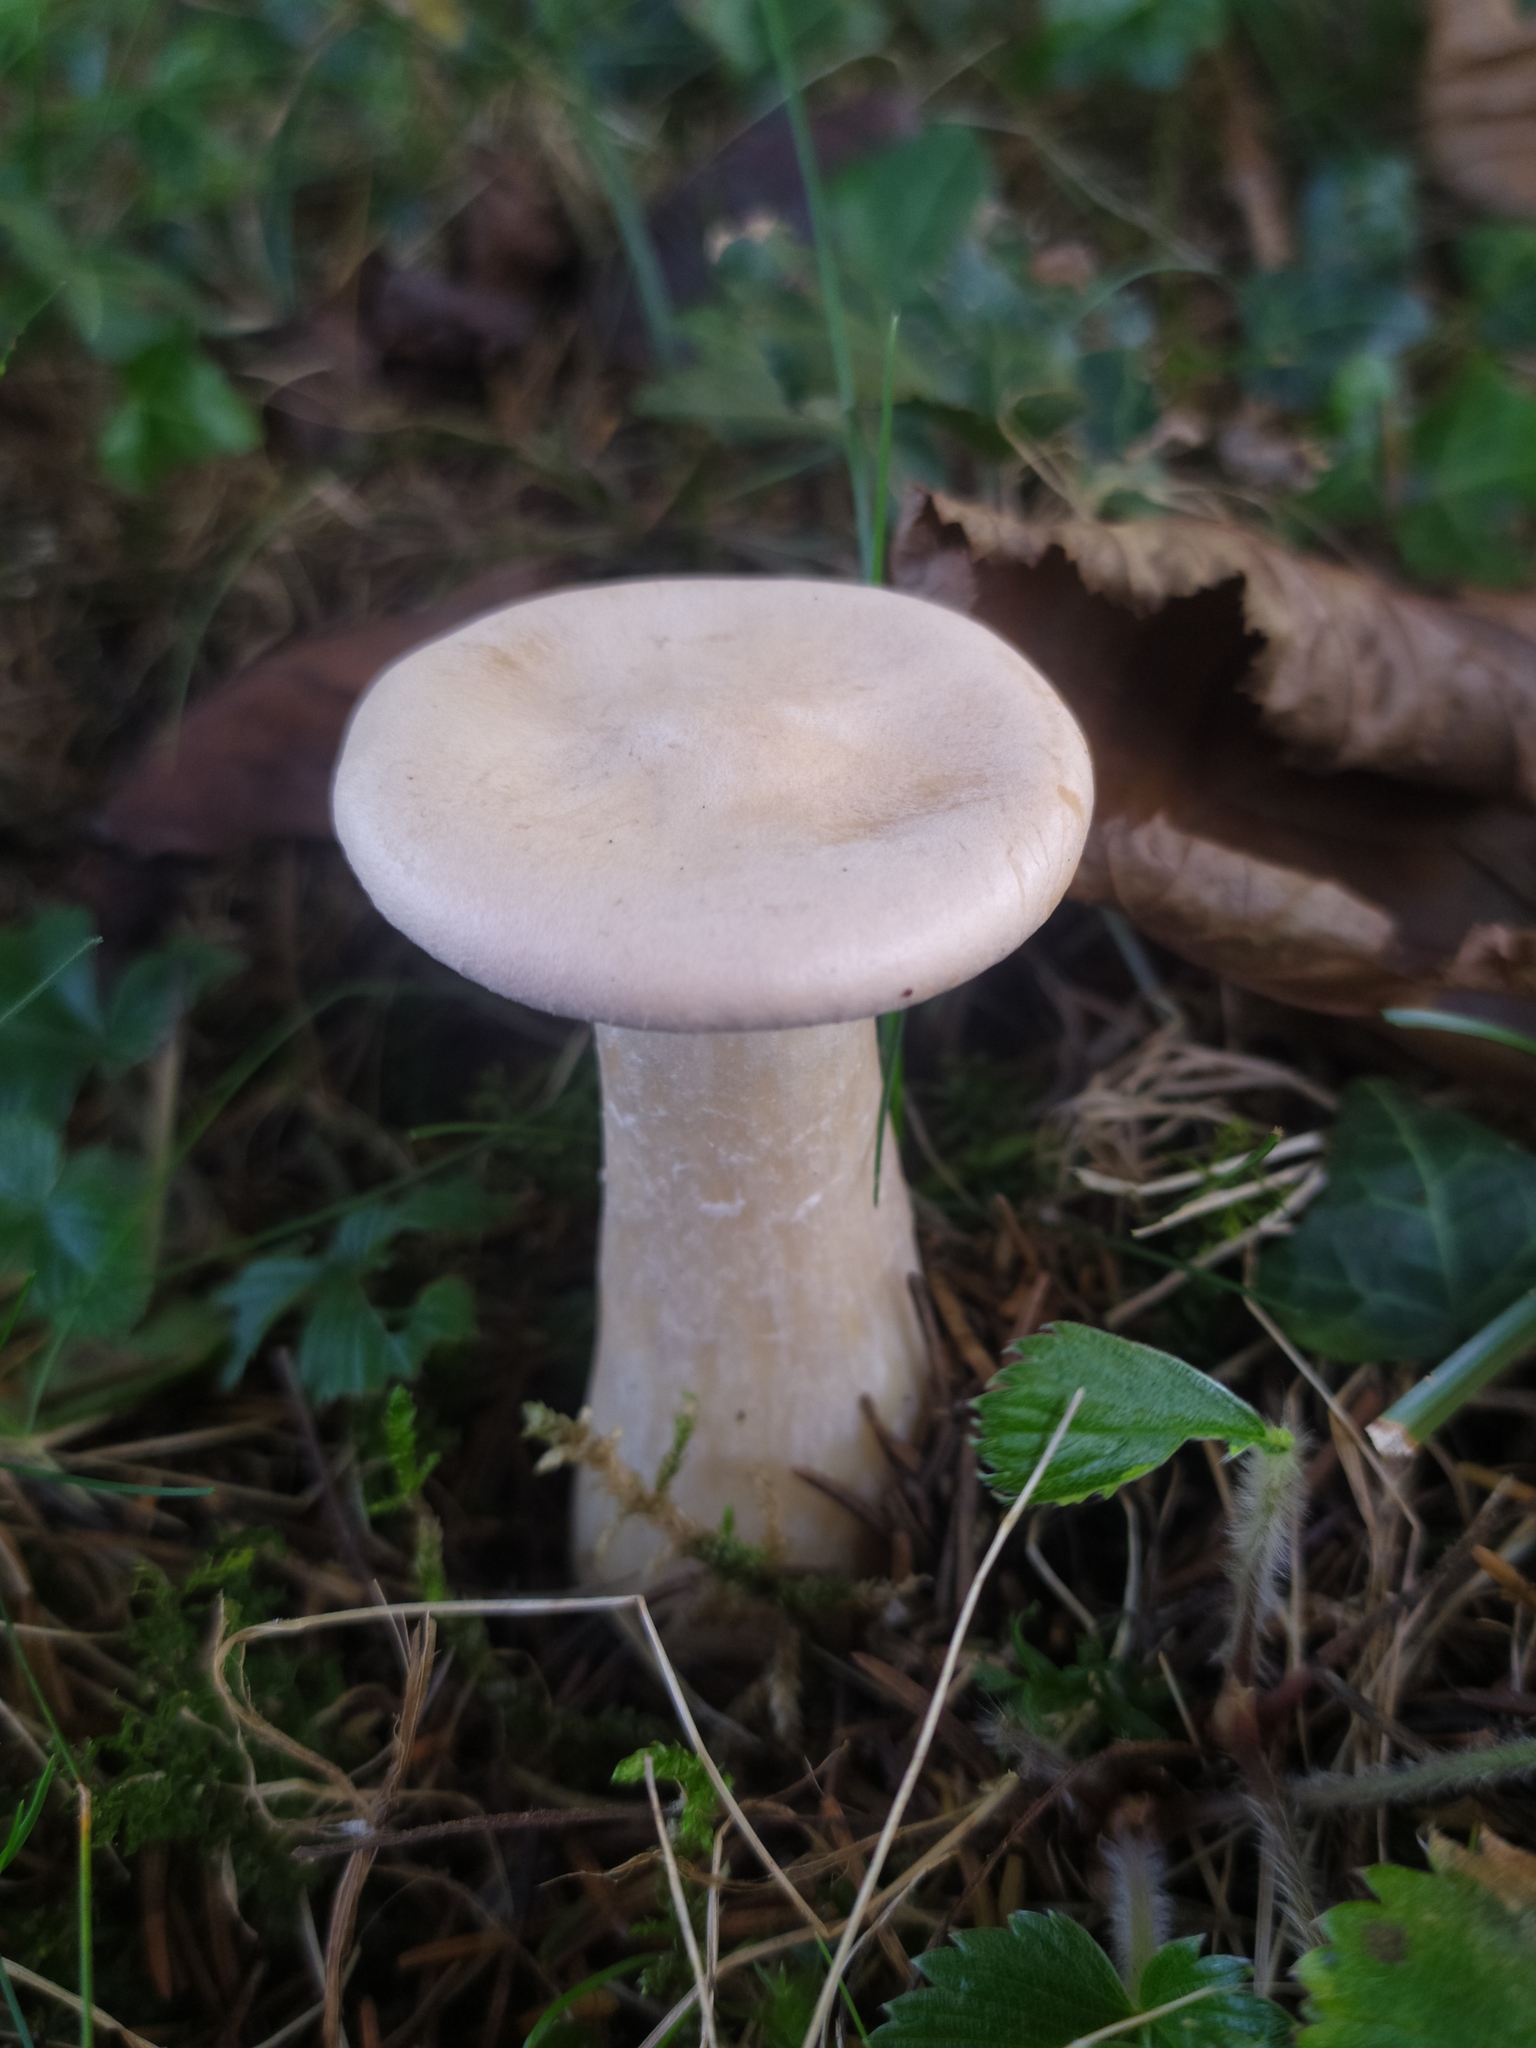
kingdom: Fungi
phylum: Basidiomycota
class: Agaricomycetes
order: Agaricales
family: Tricholomataceae
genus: Infundibulicybe
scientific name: Infundibulicybe geotropa
